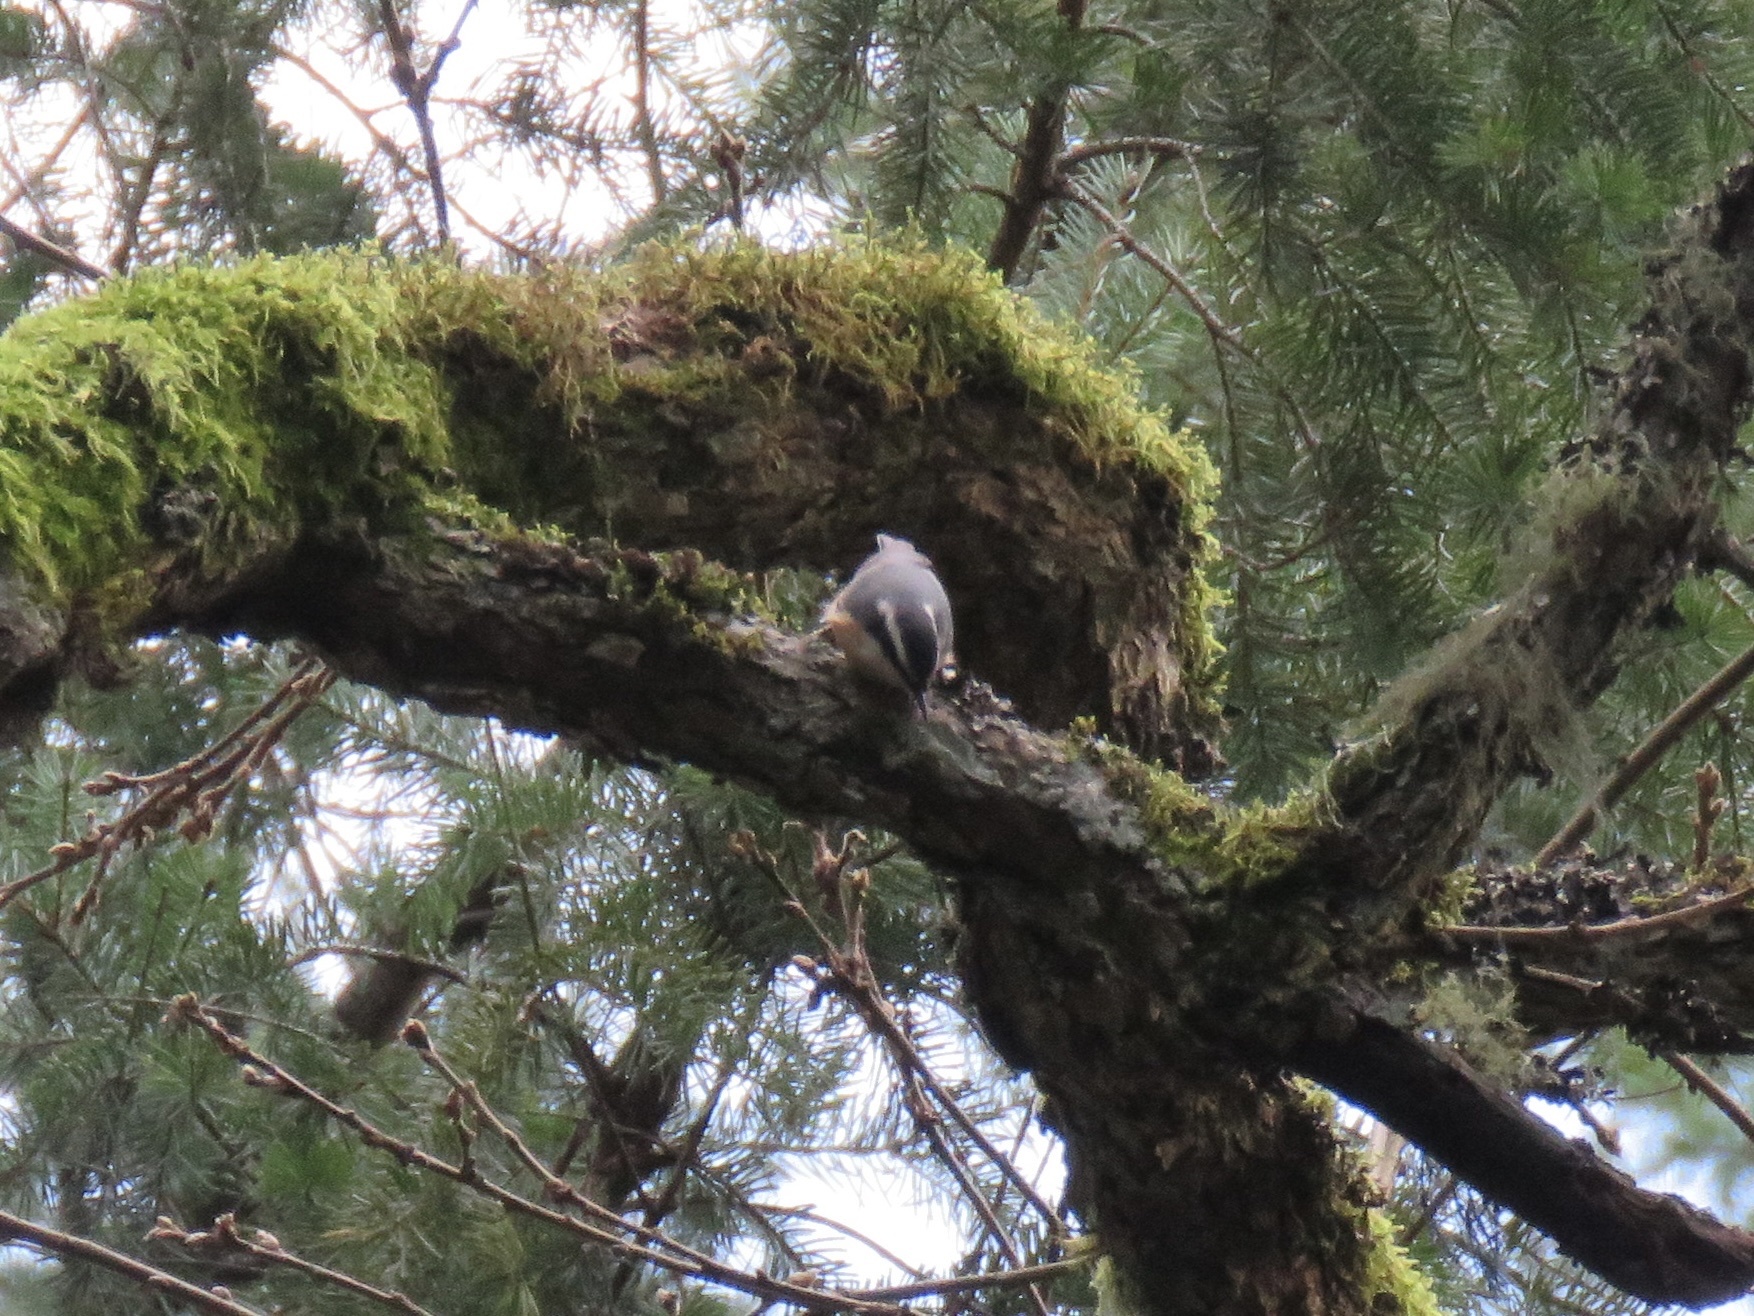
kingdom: Animalia
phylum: Chordata
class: Aves
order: Passeriformes
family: Sittidae
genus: Sitta
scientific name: Sitta canadensis
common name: Red-breasted nuthatch
